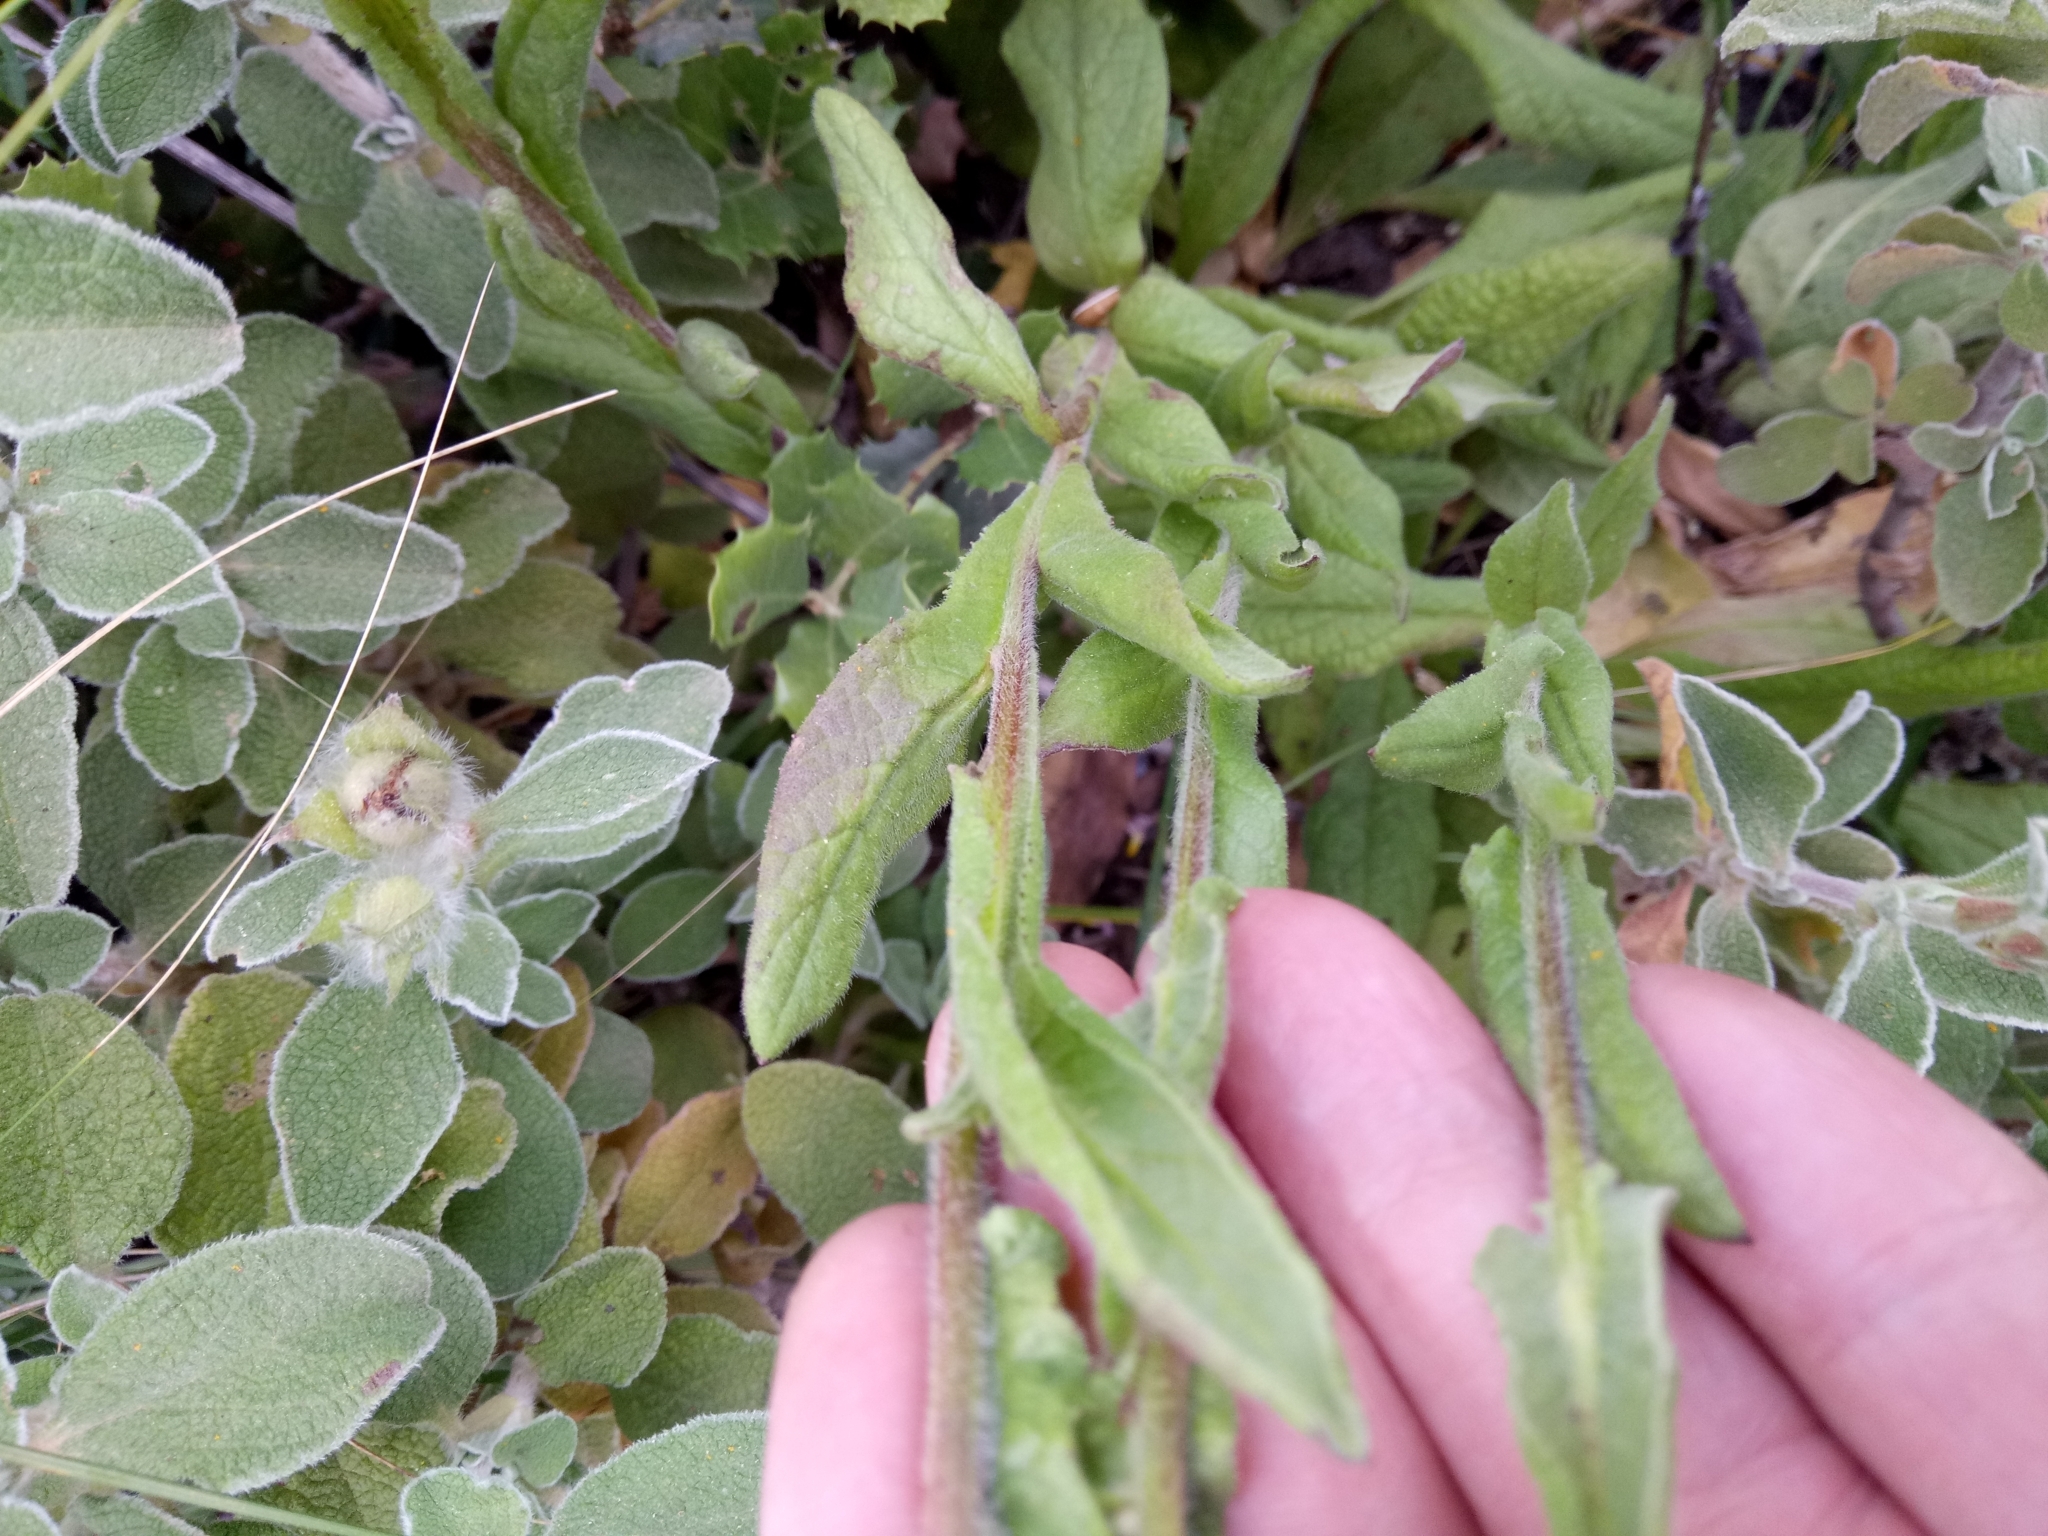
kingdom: Plantae
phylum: Tracheophyta
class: Magnoliopsida
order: Asterales
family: Asteraceae
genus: Pulicaria
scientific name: Pulicaria odora
